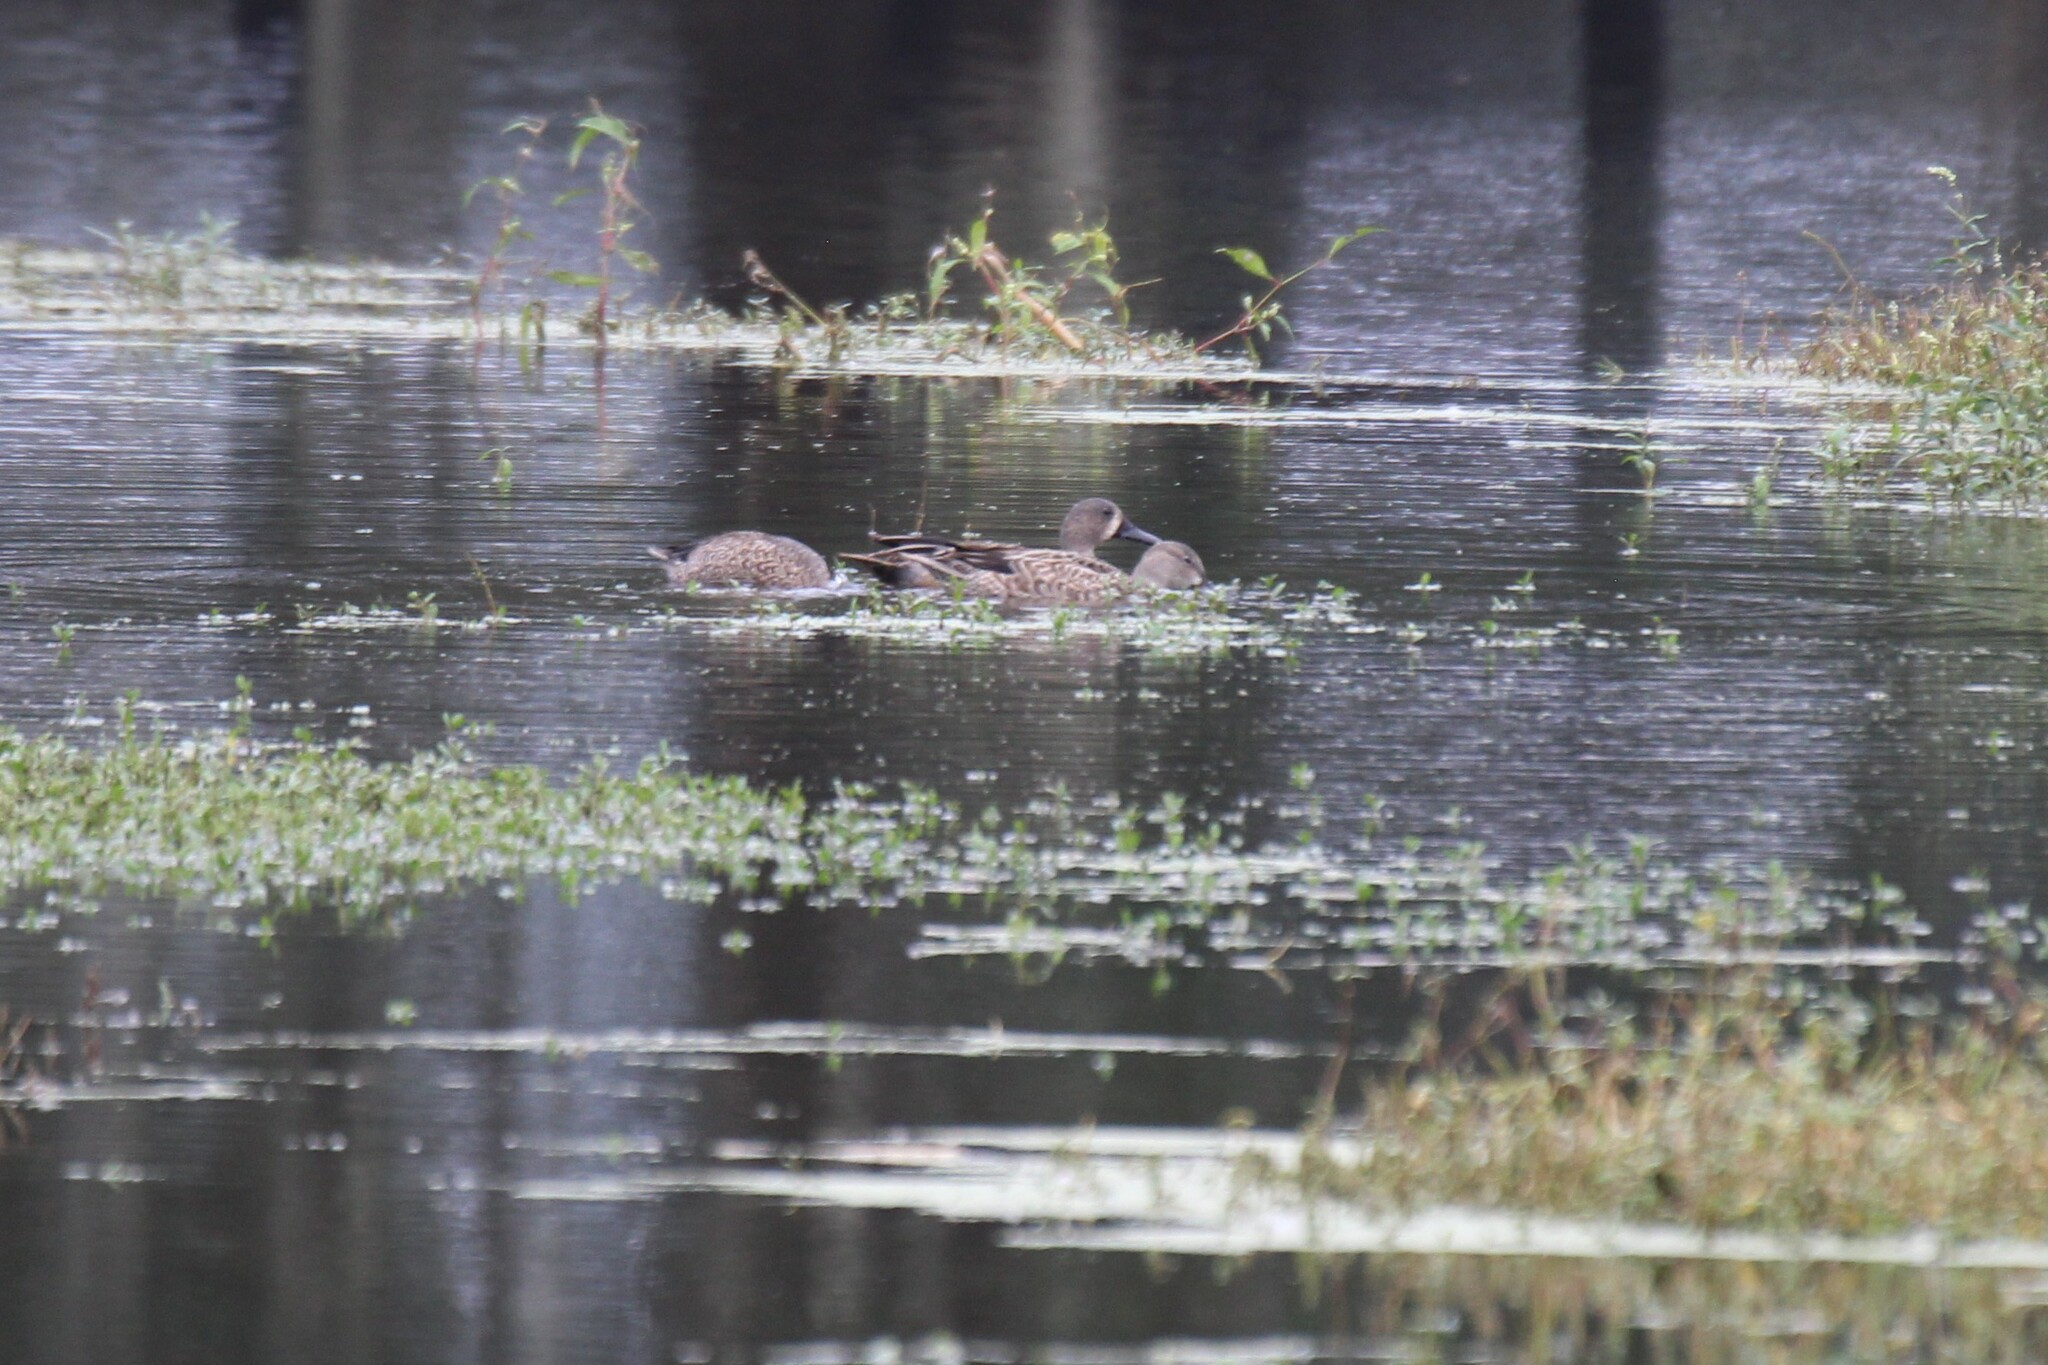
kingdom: Animalia
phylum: Chordata
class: Aves
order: Anseriformes
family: Anatidae
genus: Spatula
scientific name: Spatula discors
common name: Blue-winged teal
